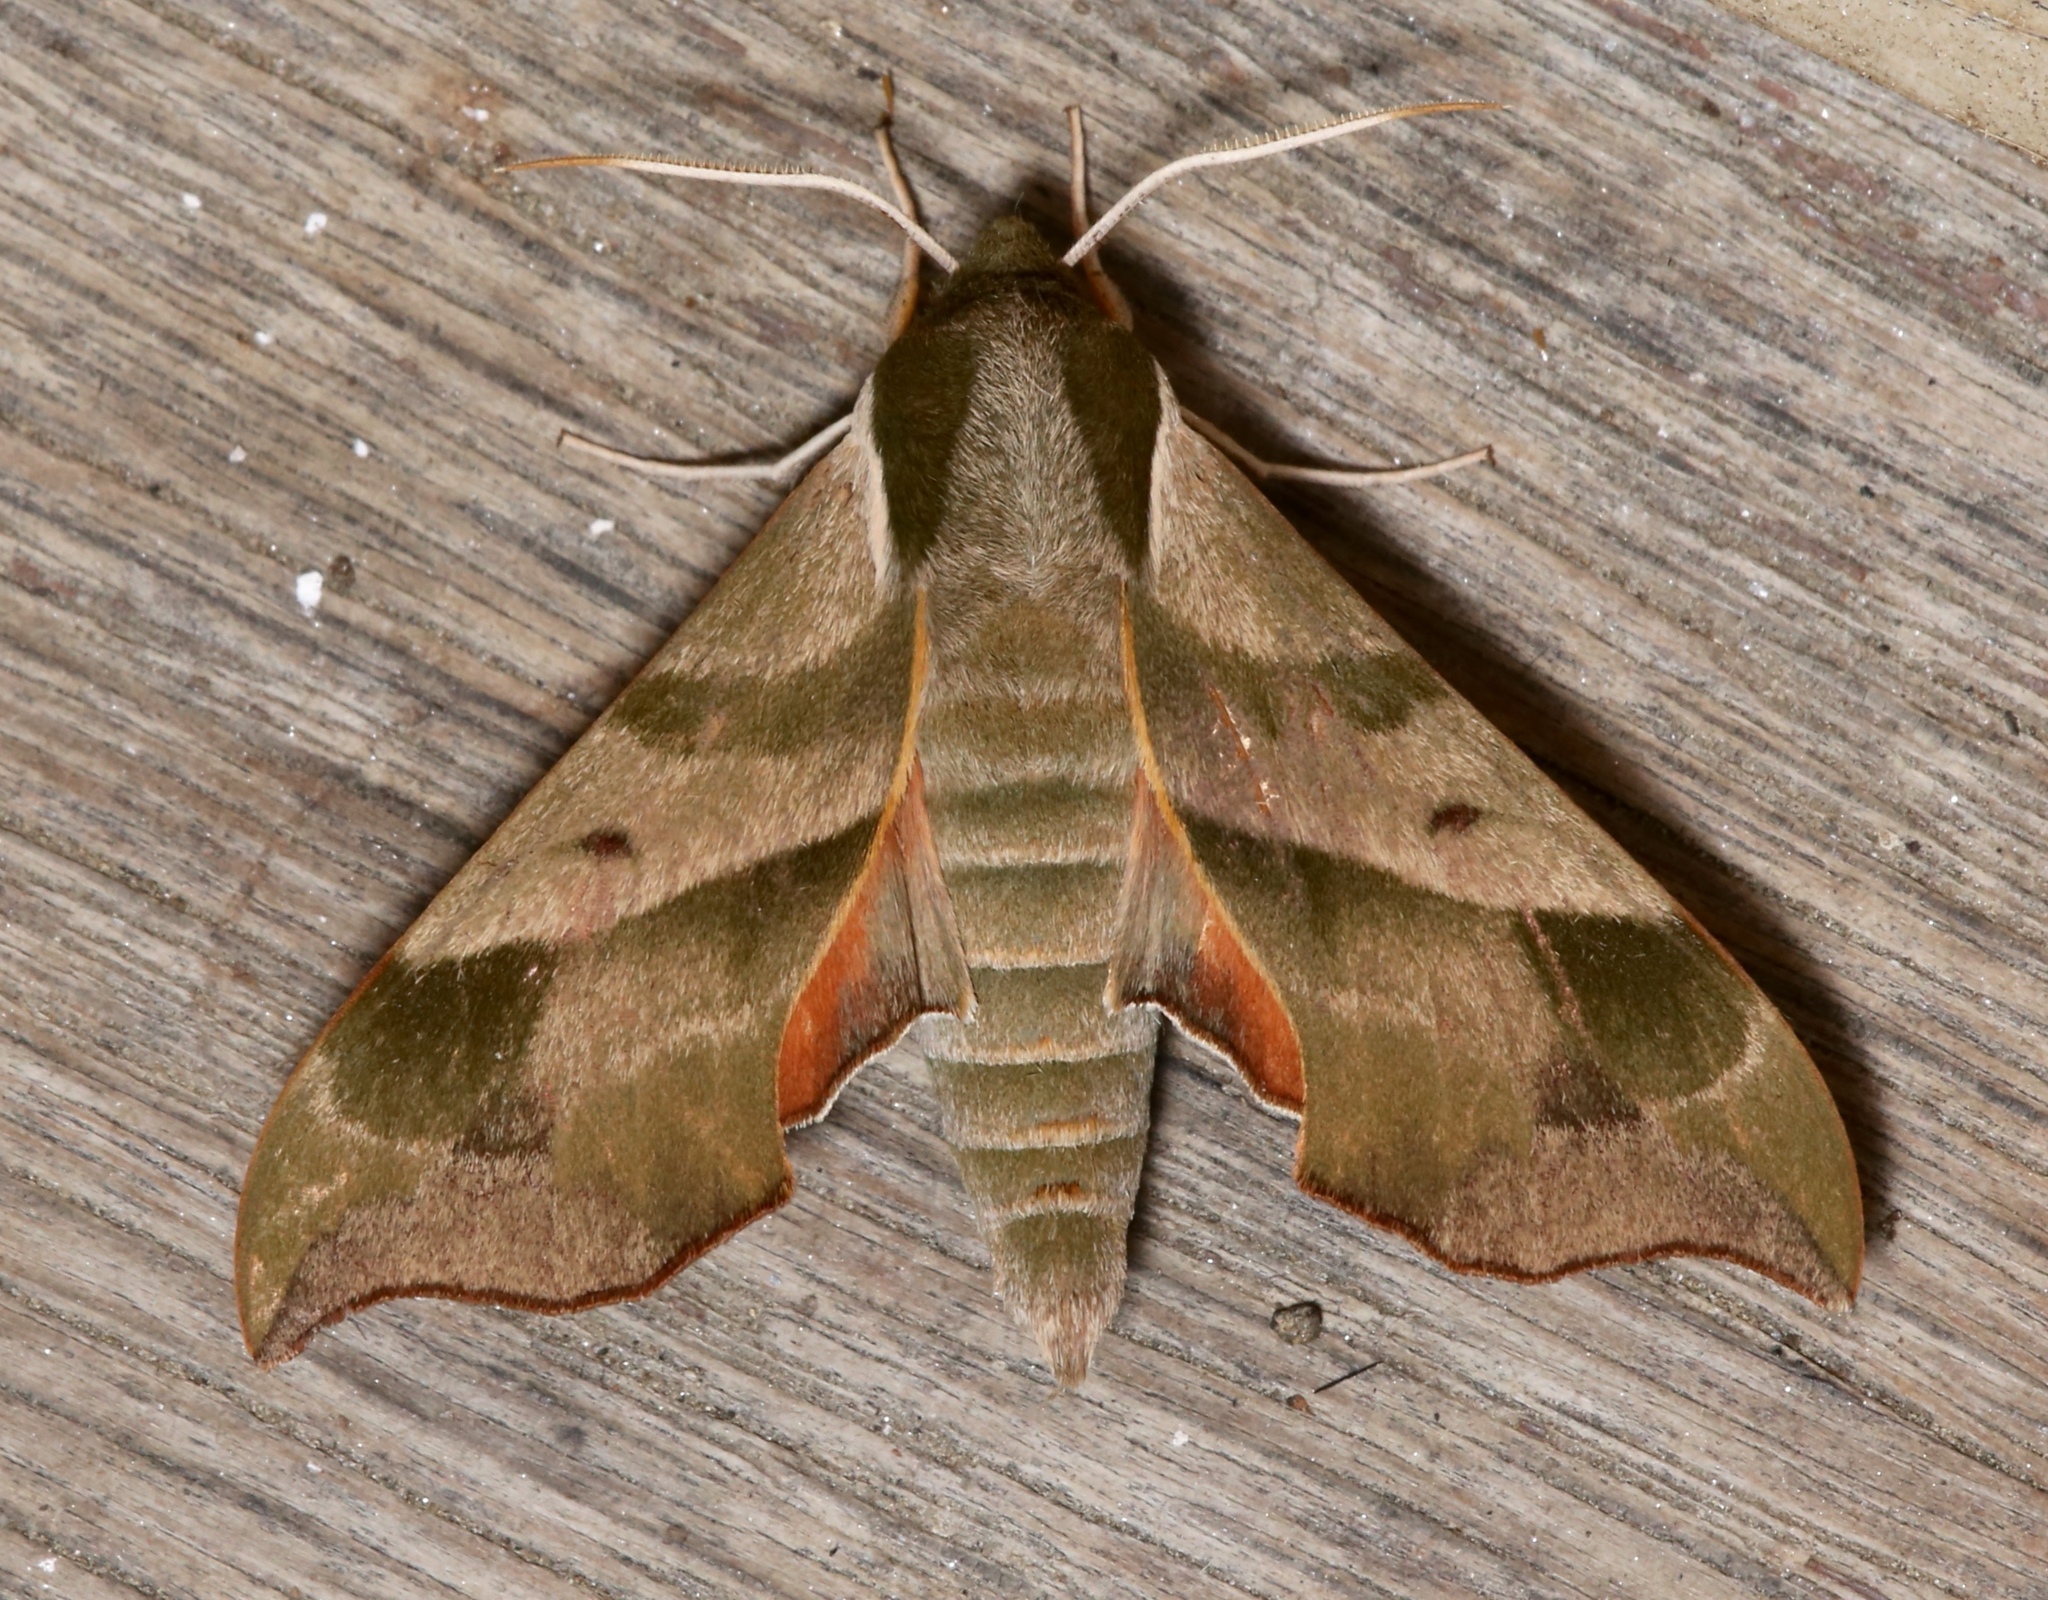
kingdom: Animalia
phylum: Arthropoda
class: Insecta
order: Lepidoptera
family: Sphingidae
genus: Darapsa
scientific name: Darapsa myron
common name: Hog sphinx
